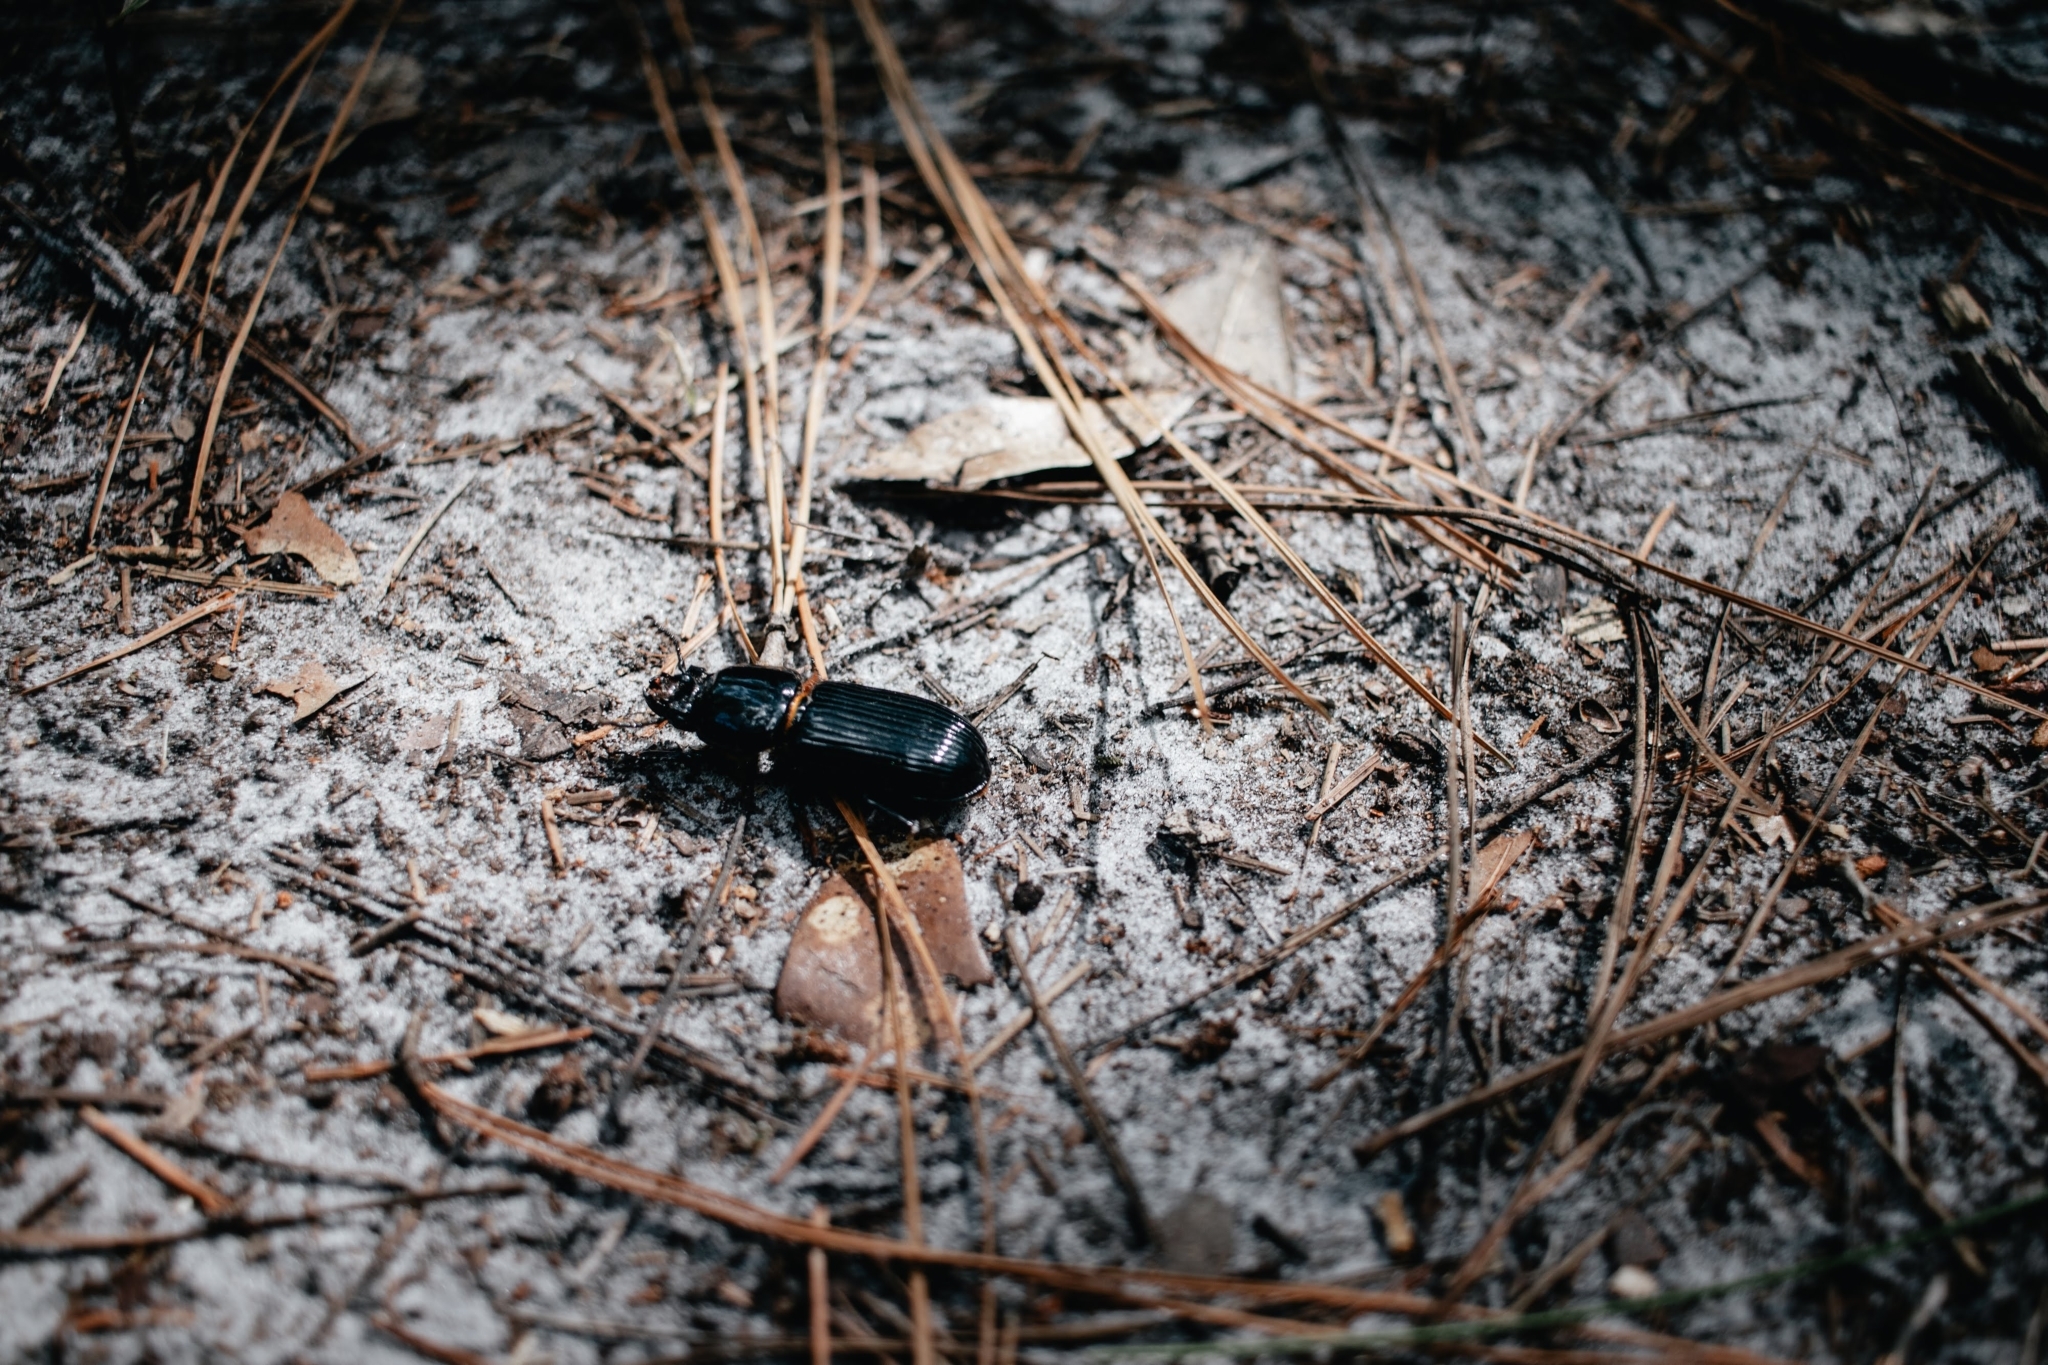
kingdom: Animalia
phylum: Arthropoda
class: Insecta
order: Coleoptera
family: Passalidae
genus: Odontotaenius
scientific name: Odontotaenius disjunctus
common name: Patent leather beetle
